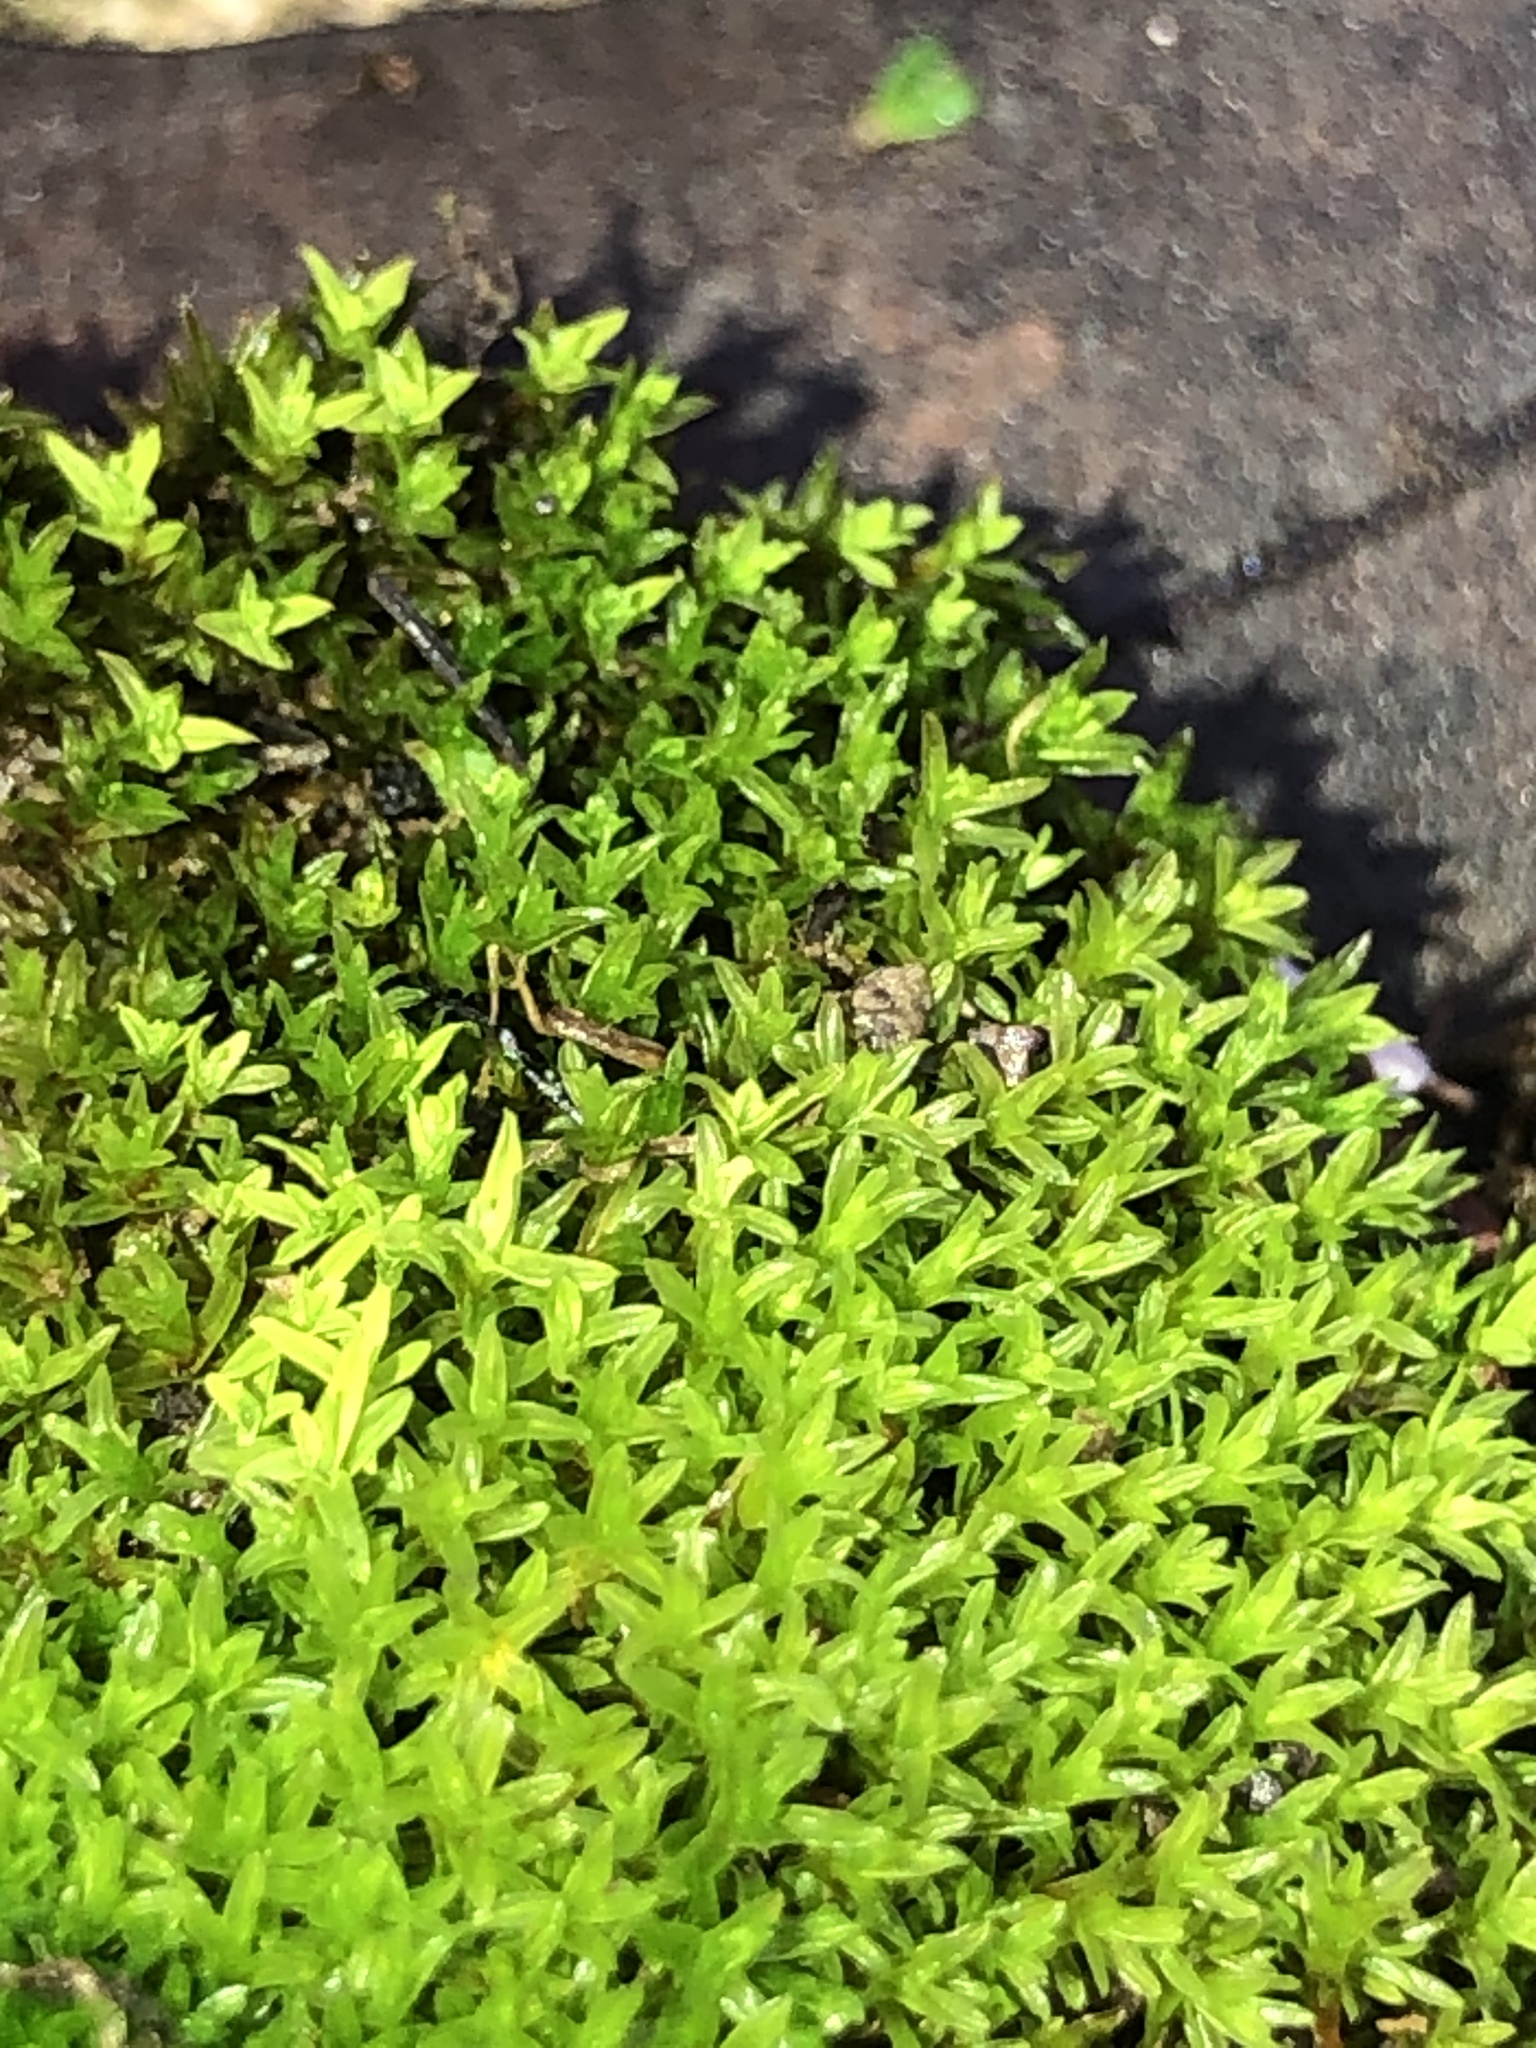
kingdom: Plantae
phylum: Bryophyta
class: Bryopsida
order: Pottiales
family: Pottiaceae
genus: Barbula
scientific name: Barbula unguiculata
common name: Prickly beard moss
